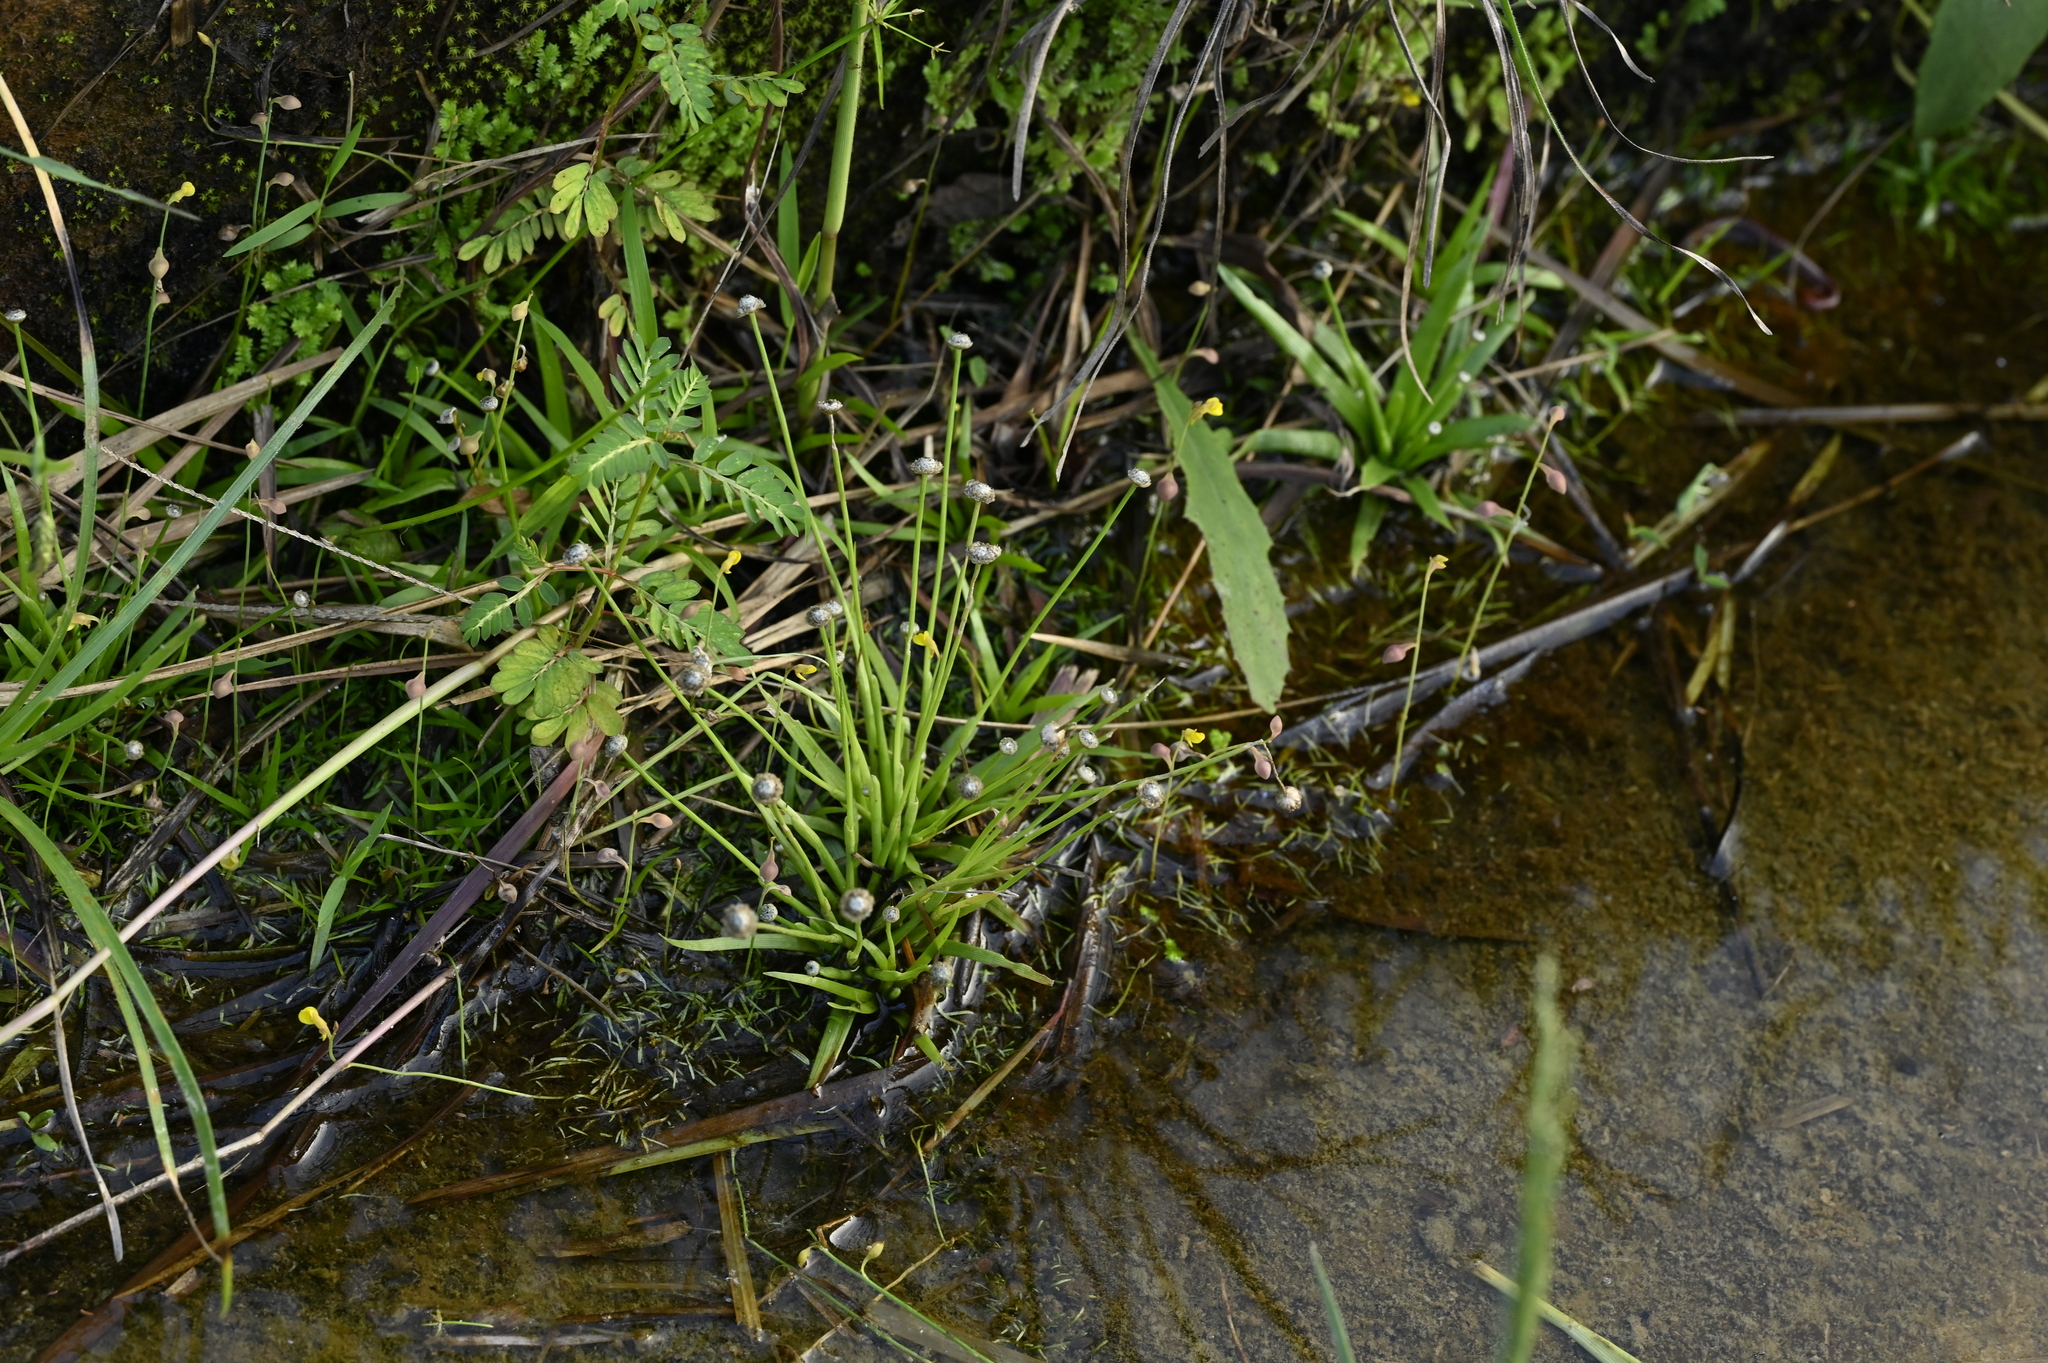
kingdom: Plantae
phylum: Tracheophyta
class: Liliopsida
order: Poales
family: Eriocaulaceae
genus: Eriocaulon
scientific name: Eriocaulon truncatum
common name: Short pipe-wort
